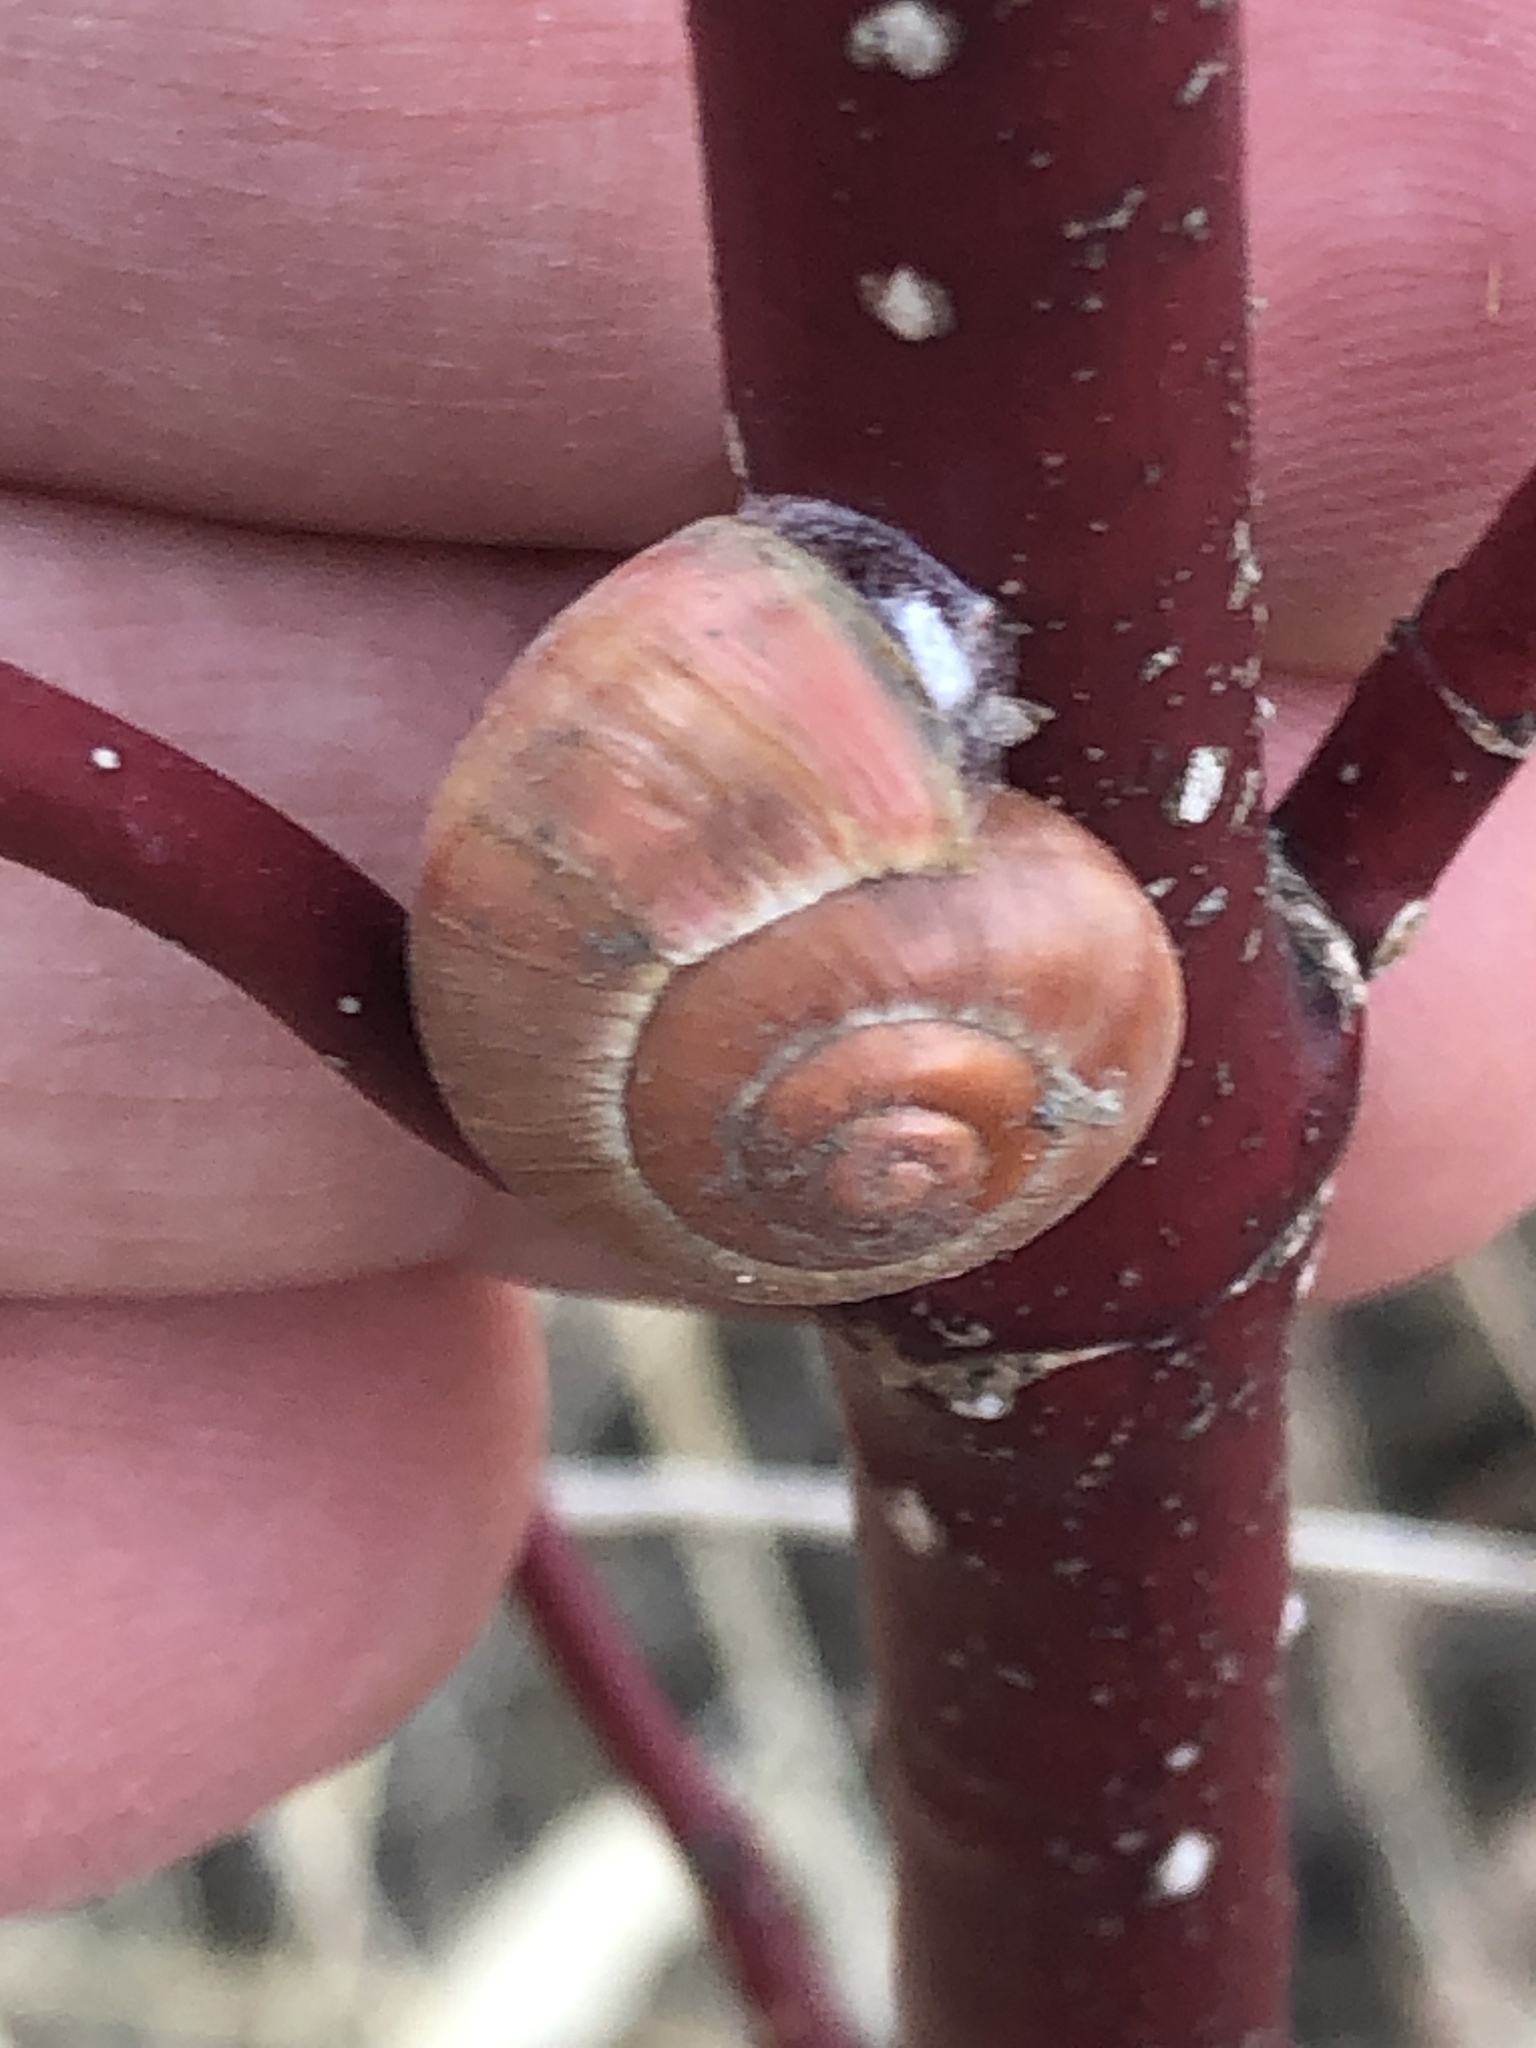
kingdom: Animalia
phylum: Mollusca
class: Gastropoda
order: Stylommatophora
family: Helicidae
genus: Cepaea
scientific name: Cepaea nemoralis
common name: Grovesnail
